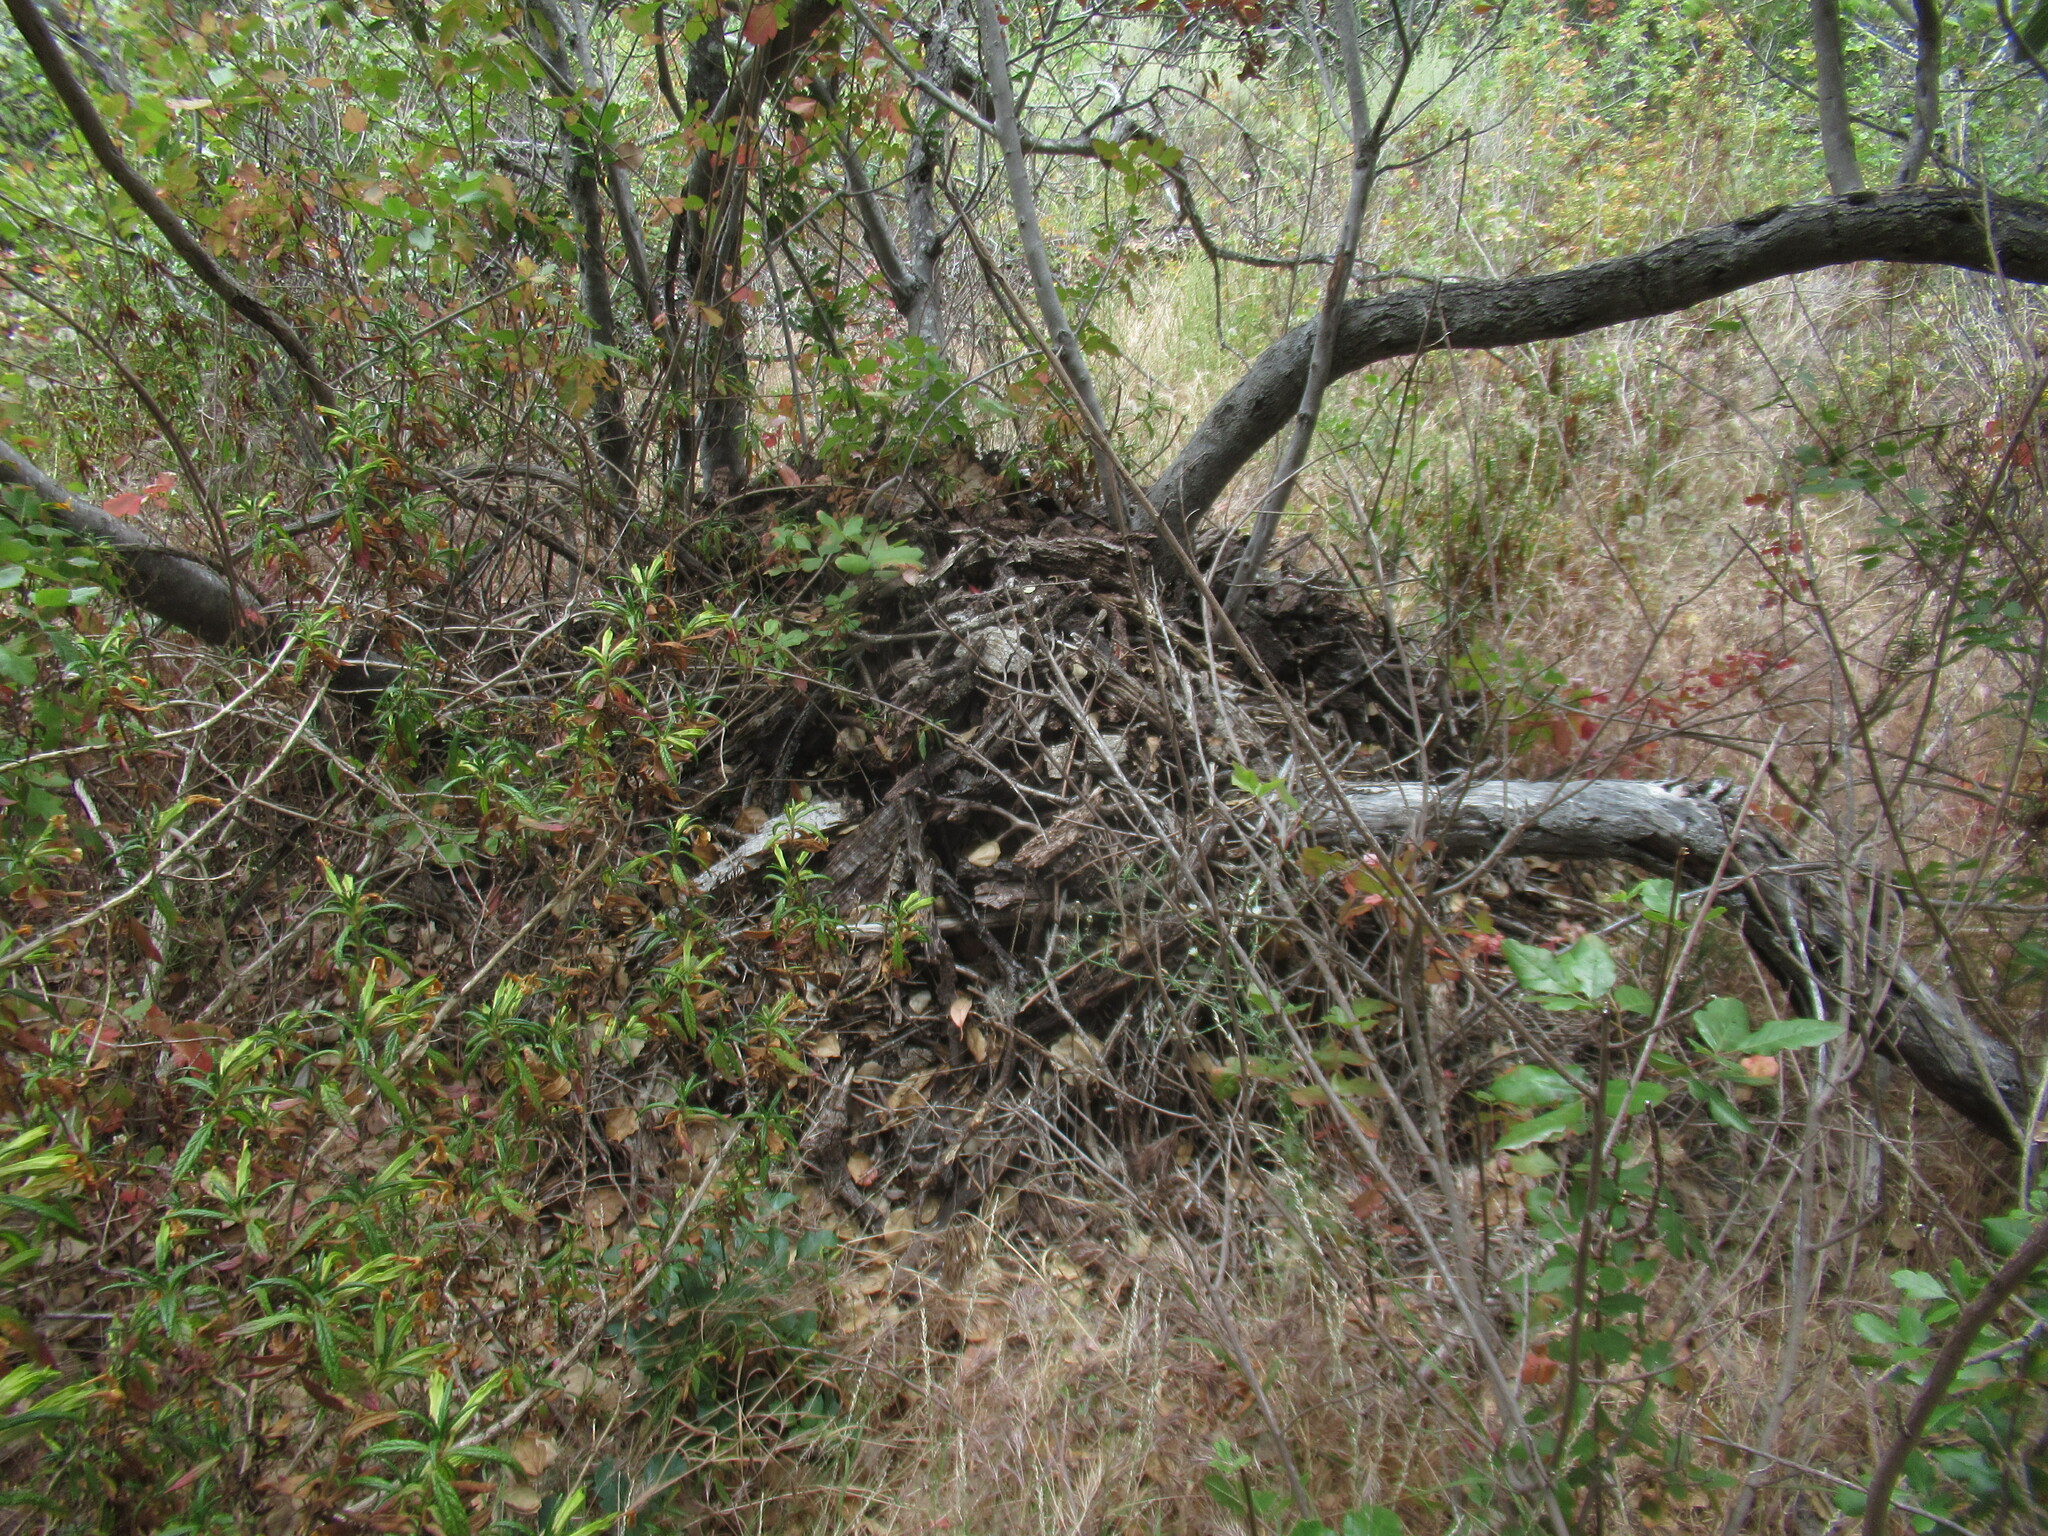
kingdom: Animalia
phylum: Chordata
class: Mammalia
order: Rodentia
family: Cricetidae
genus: Neotoma
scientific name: Neotoma fuscipes
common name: Dusky-footed woodrat
